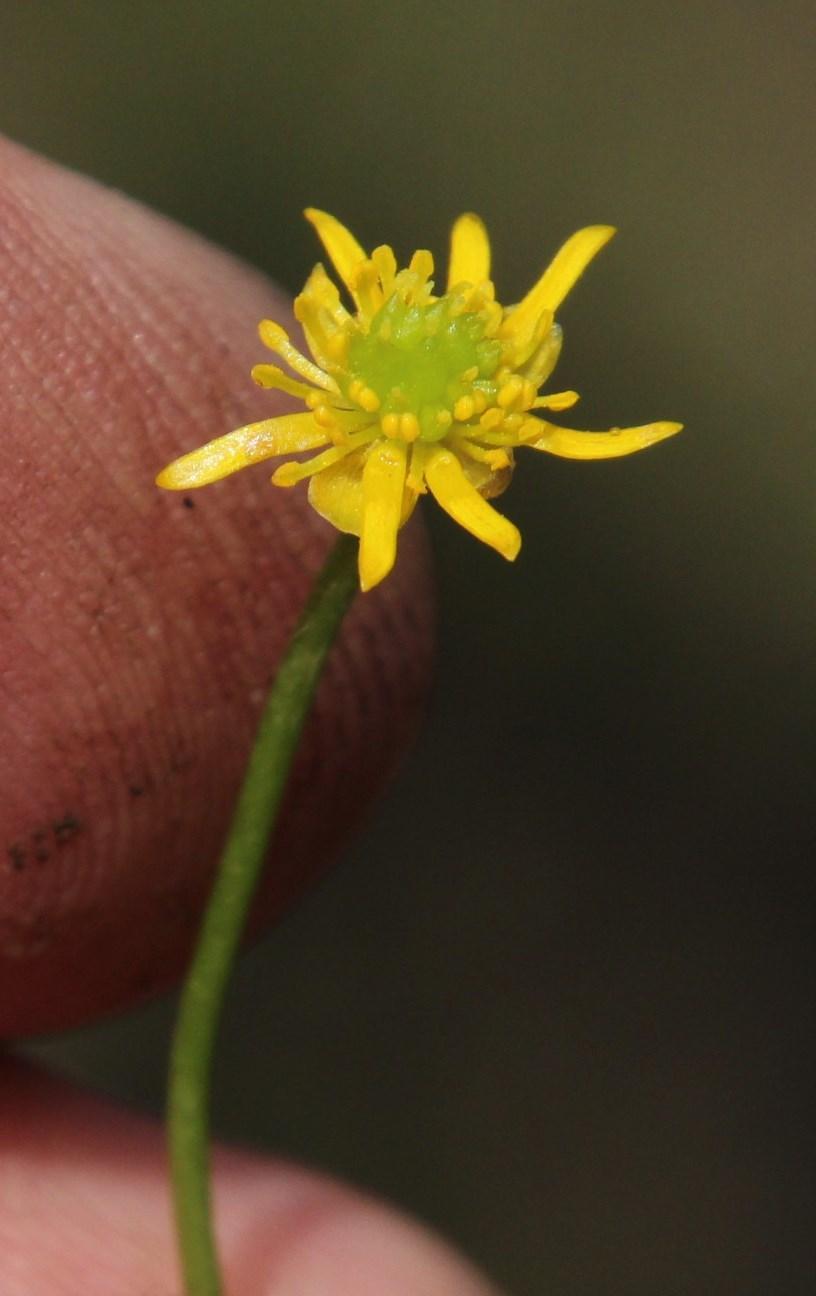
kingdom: Plantae
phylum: Tracheophyta
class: Magnoliopsida
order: Ranunculales
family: Ranunculaceae
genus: Ranunculus
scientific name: Ranunculus dregei
